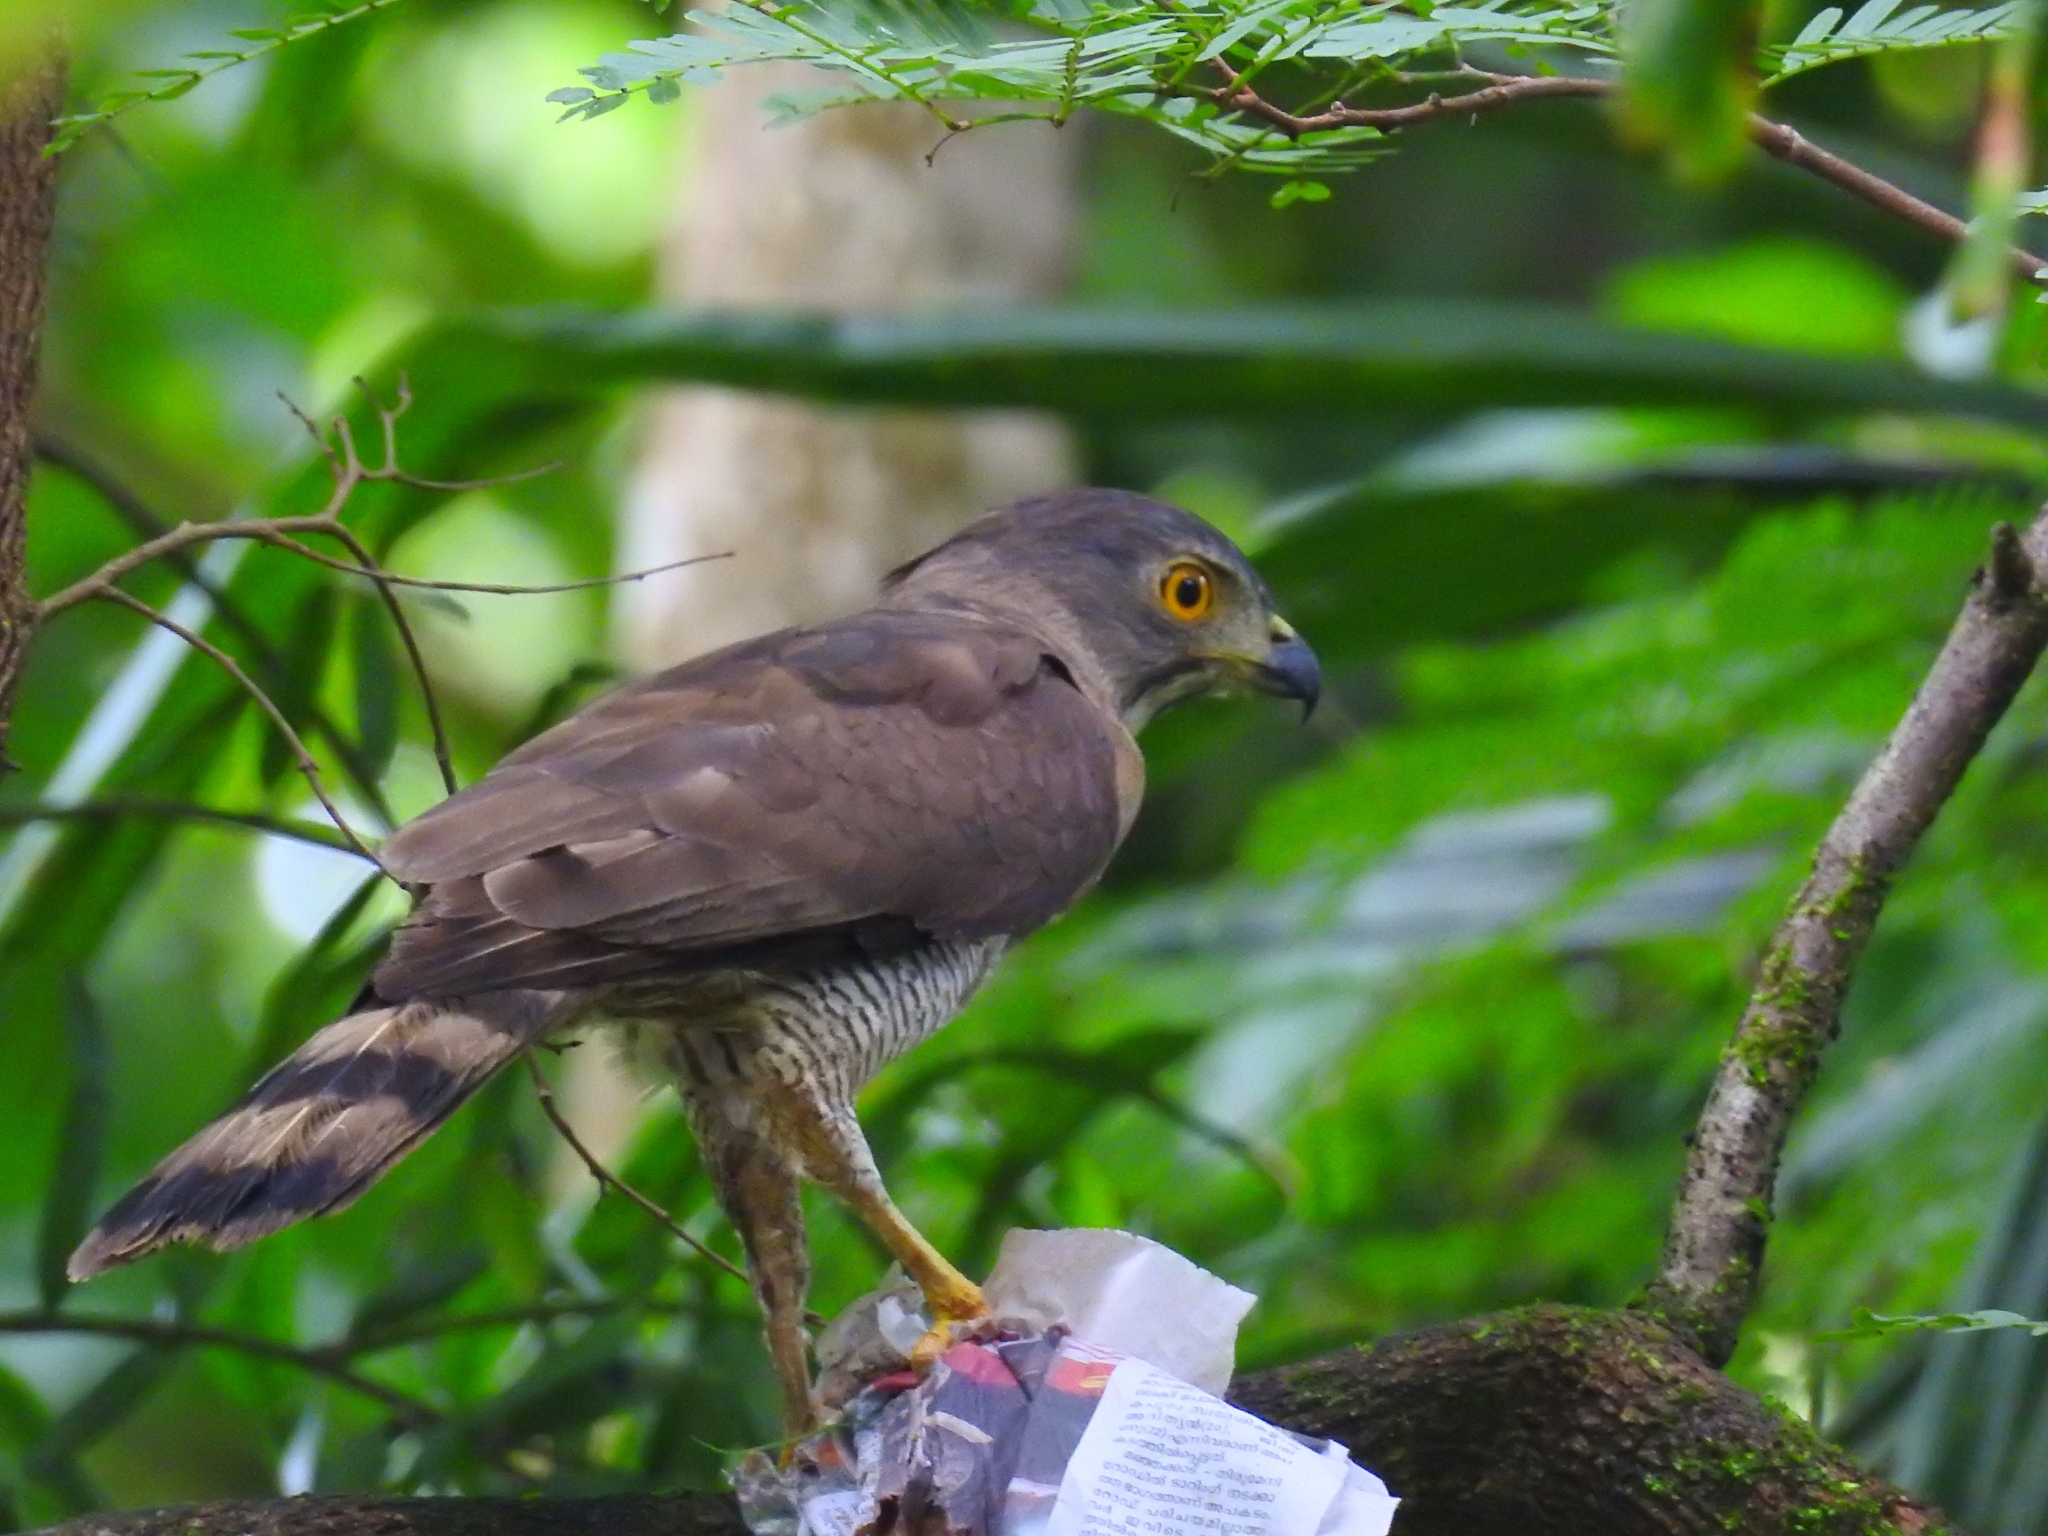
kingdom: Animalia
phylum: Chordata
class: Aves
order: Accipitriformes
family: Accipitridae
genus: Accipiter
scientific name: Accipiter trivirgatus
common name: Crested goshawk
